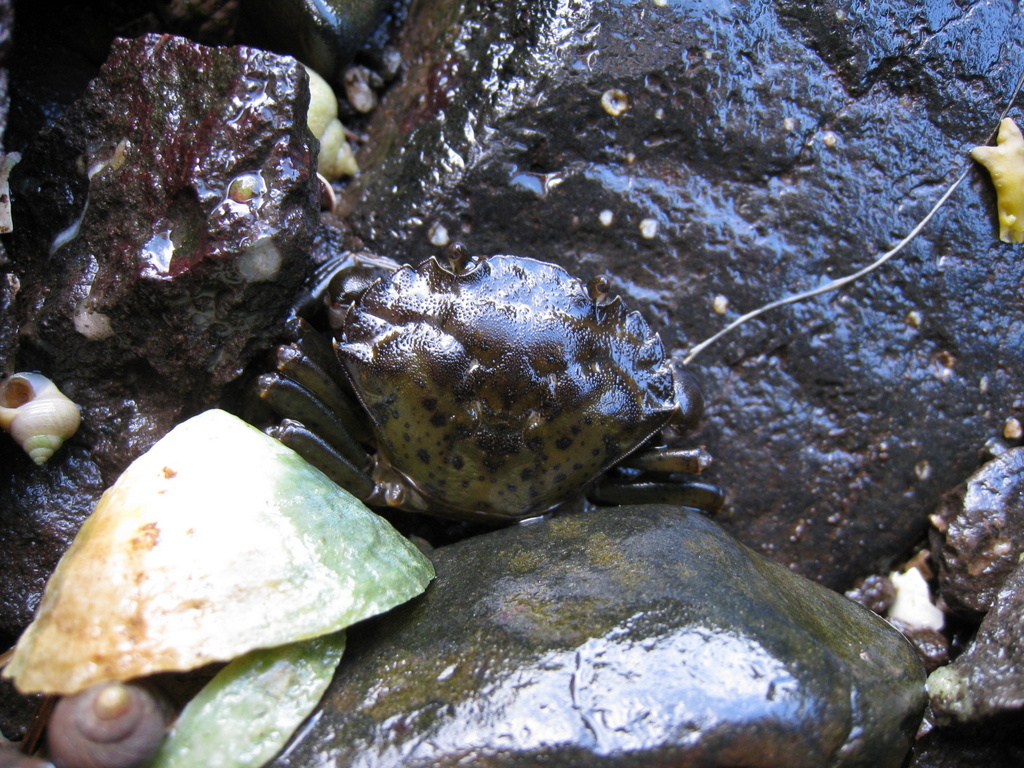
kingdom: Animalia
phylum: Arthropoda
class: Malacostraca
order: Decapoda
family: Carcinidae
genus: Carcinus
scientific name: Carcinus maenas
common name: European green crab
